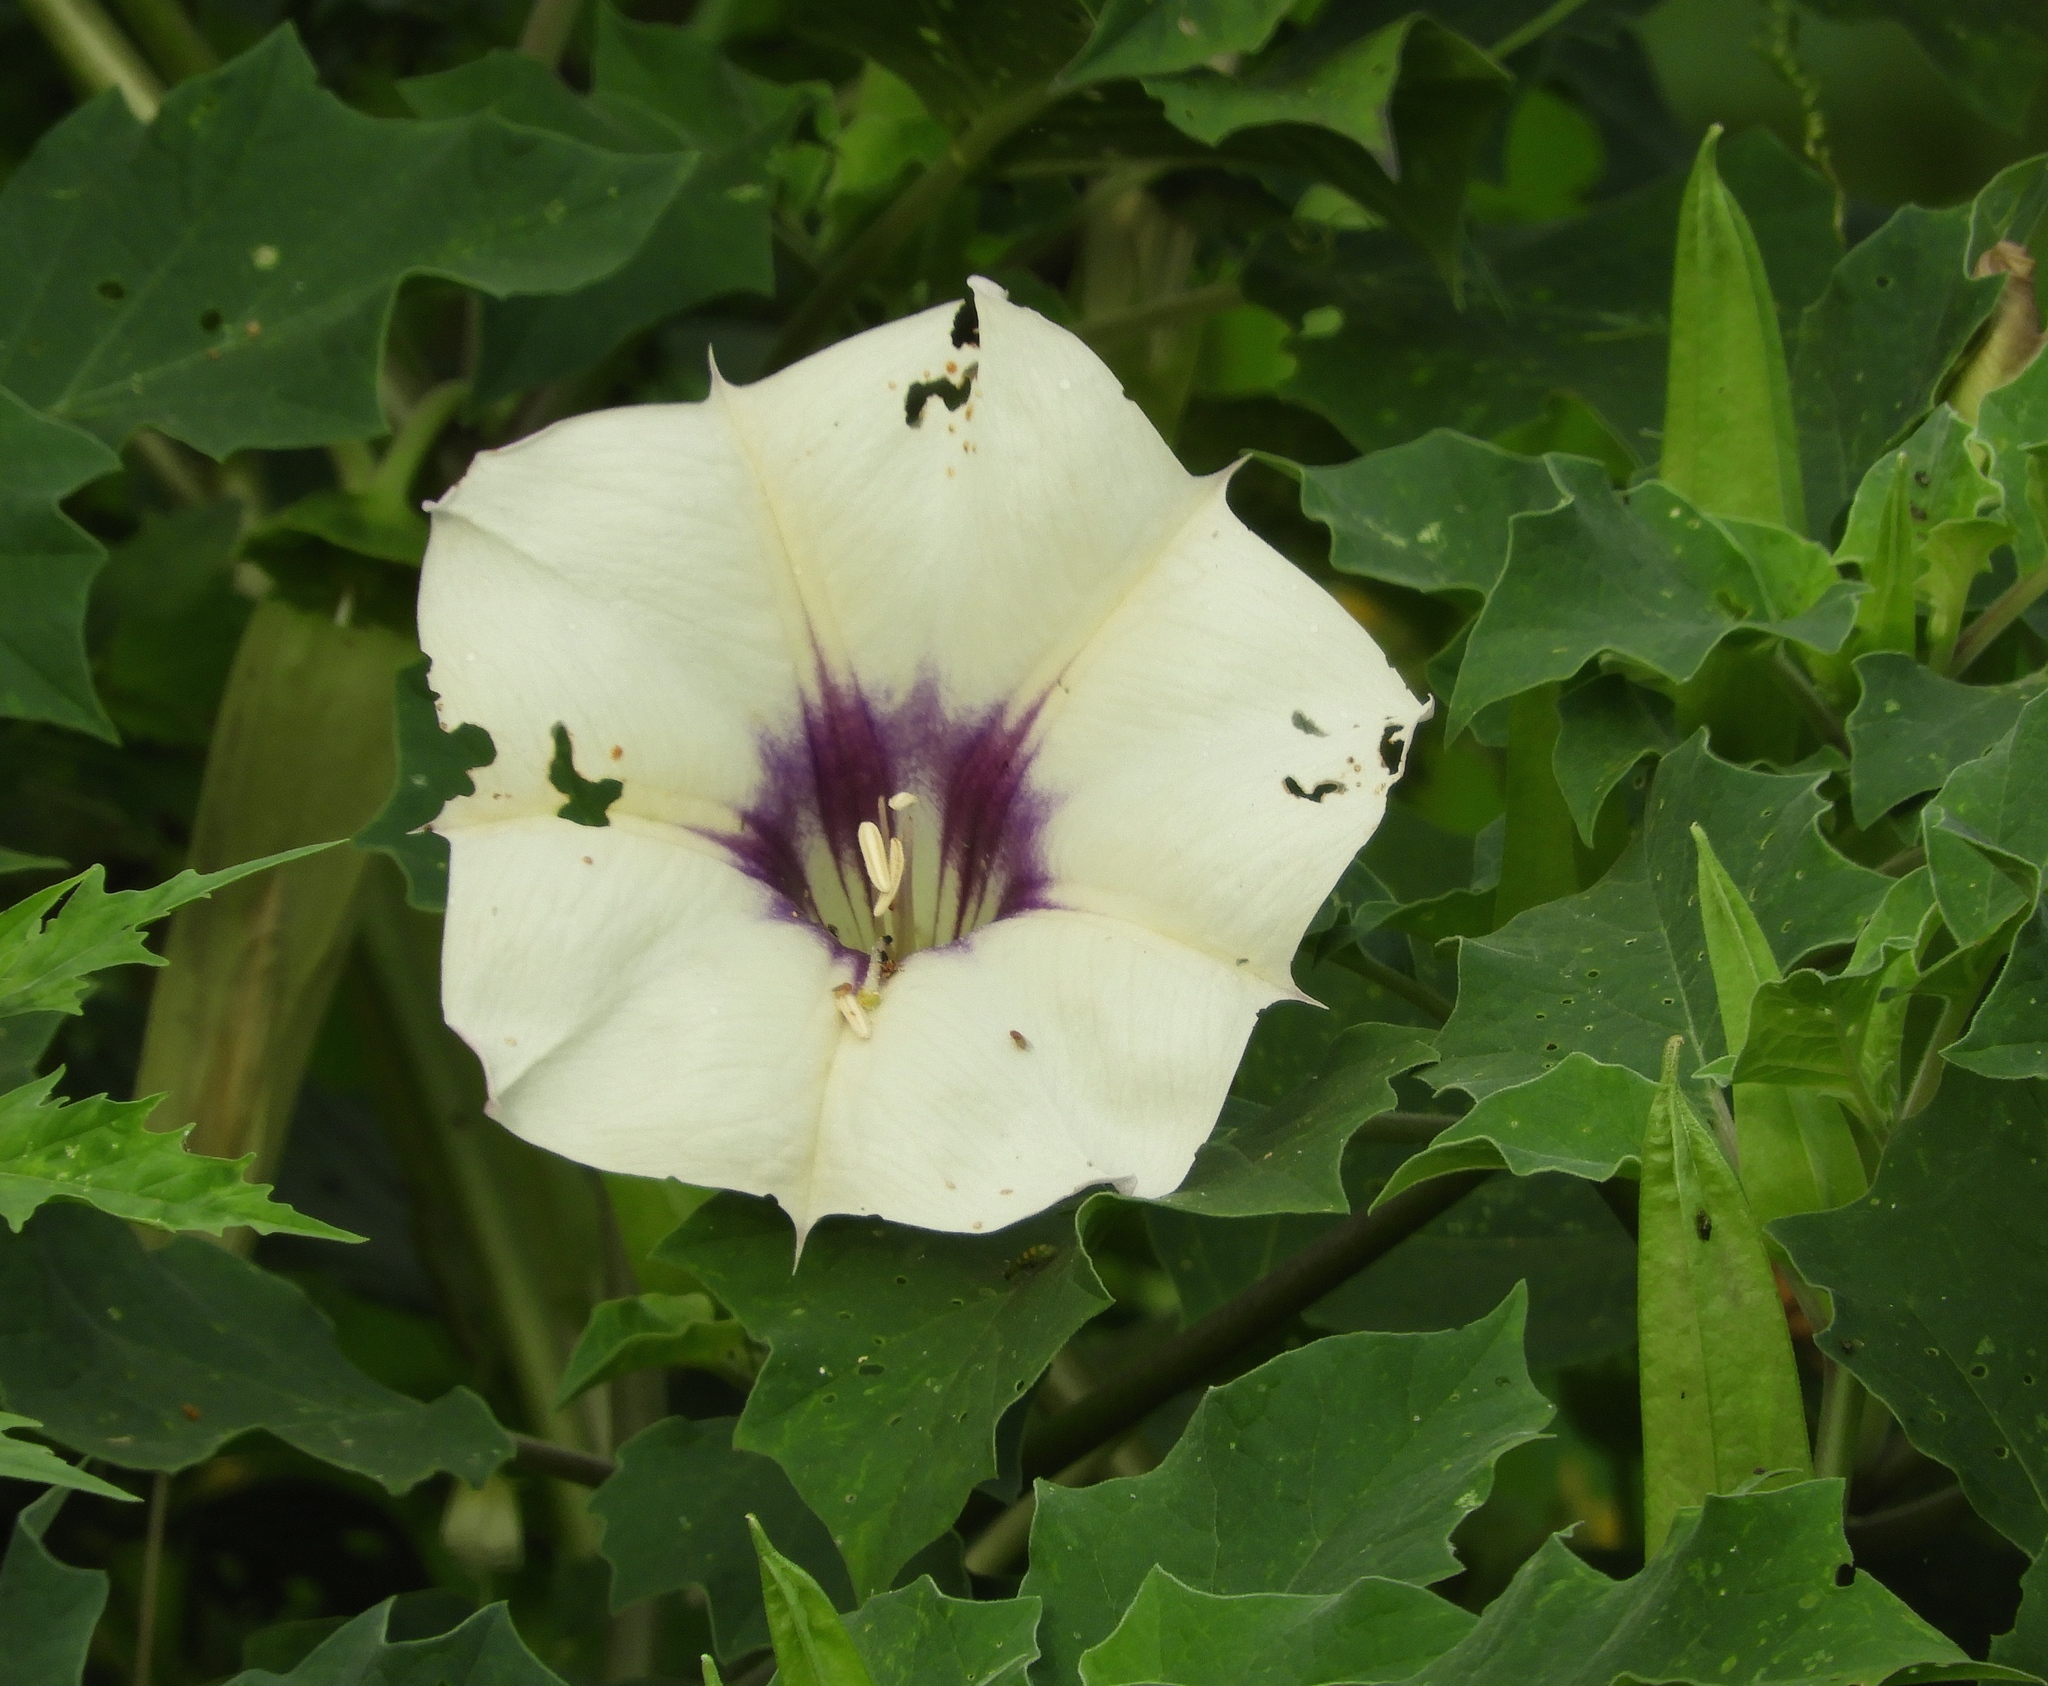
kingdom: Plantae
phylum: Tracheophyta
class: Magnoliopsida
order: Solanales
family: Solanaceae
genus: Datura
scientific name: Datura
